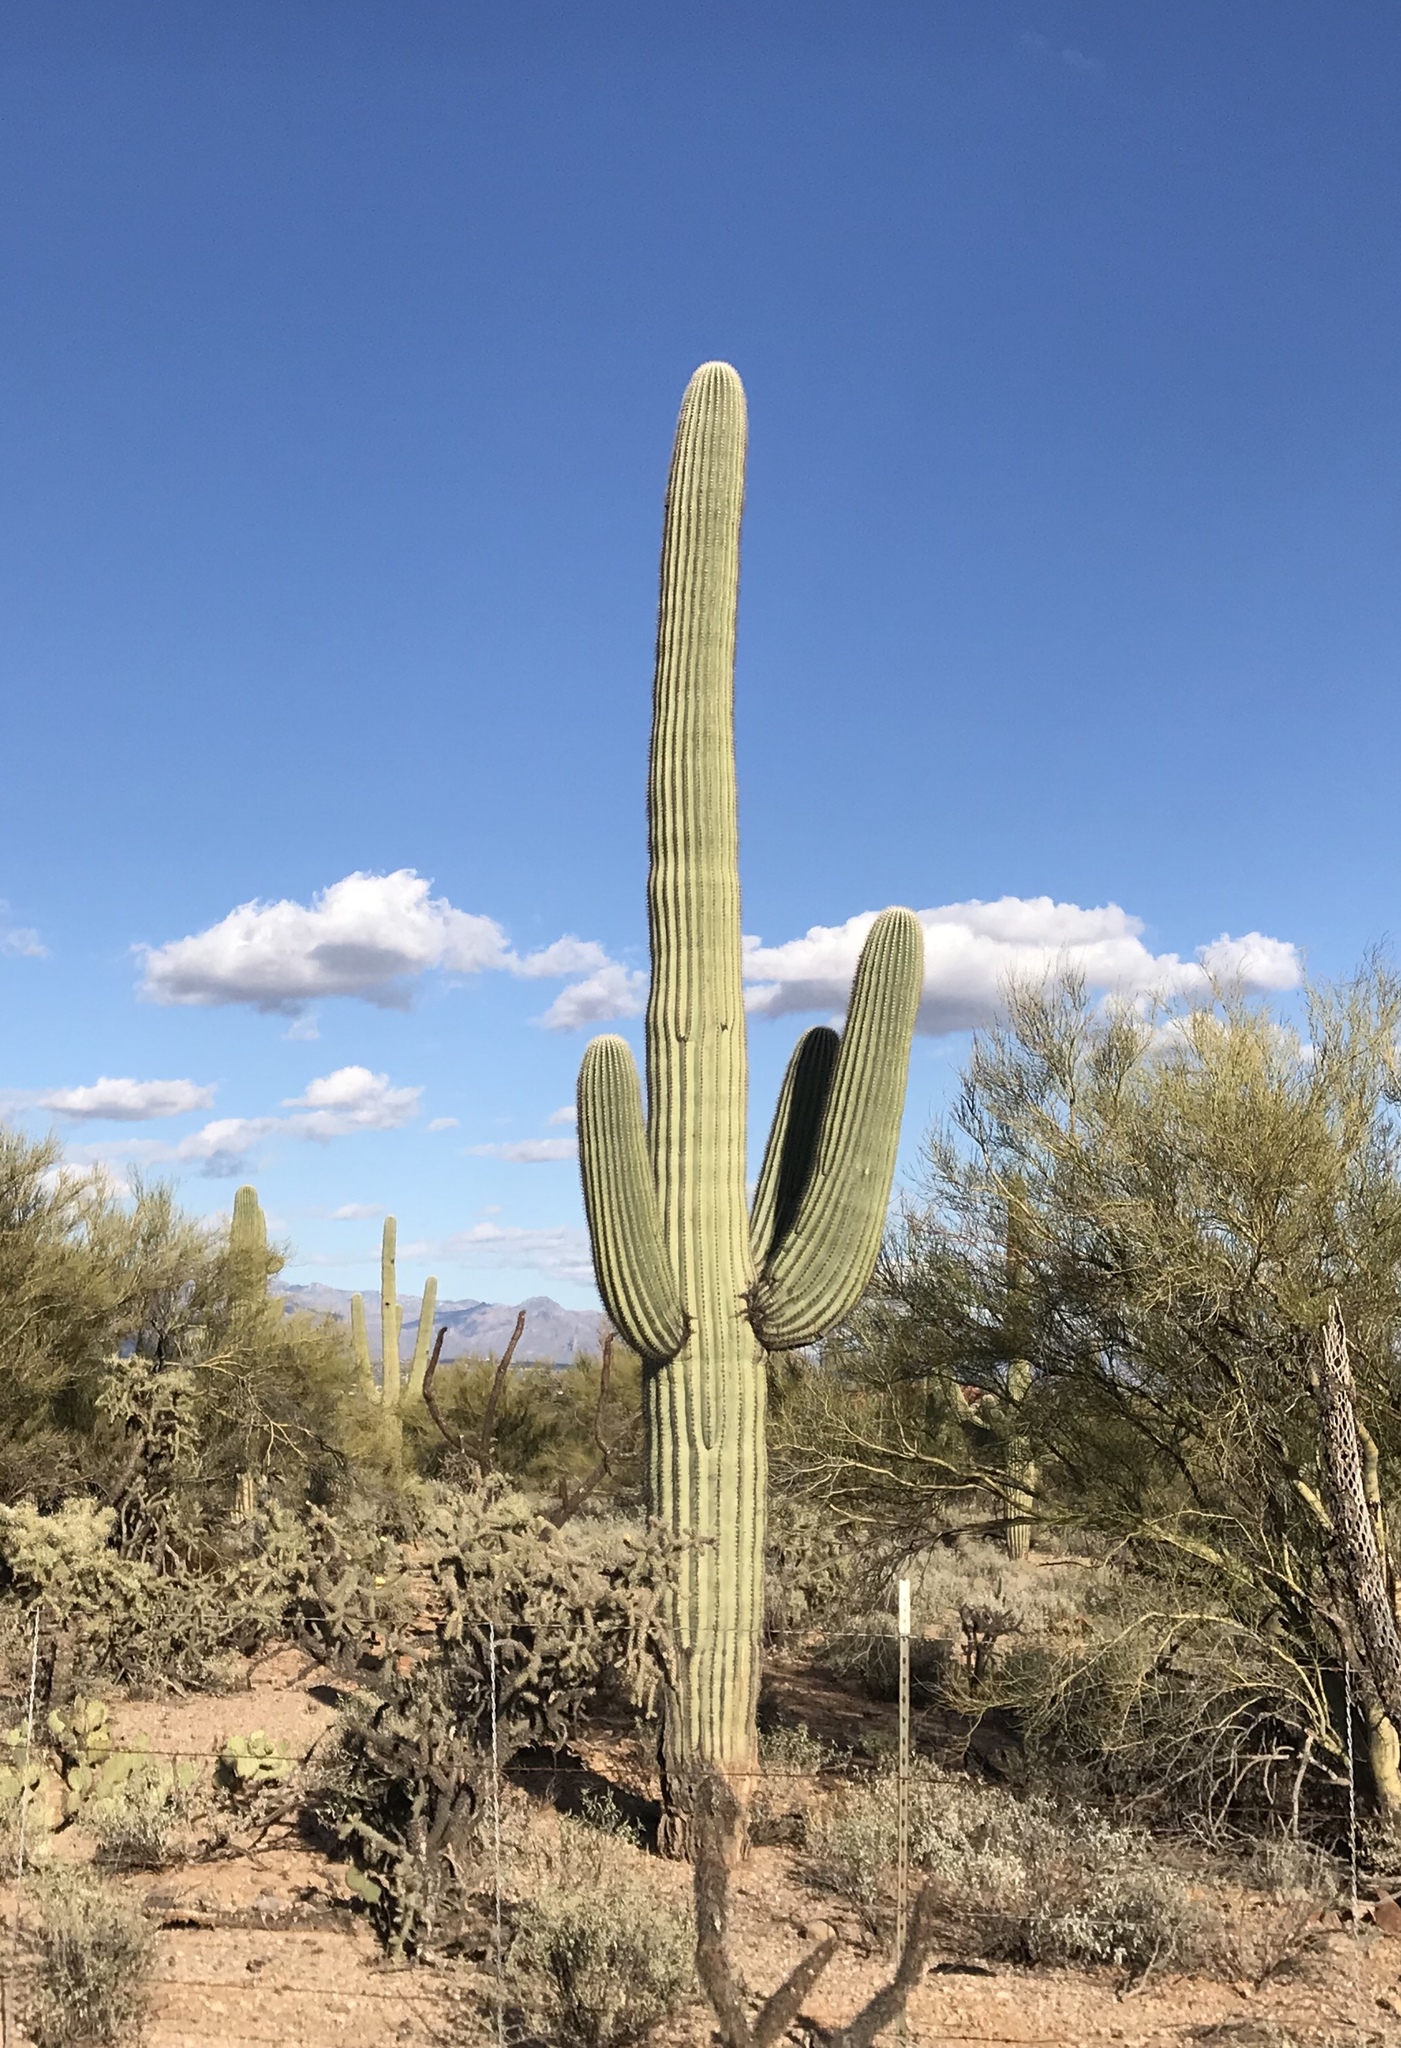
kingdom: Plantae
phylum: Tracheophyta
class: Magnoliopsida
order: Caryophyllales
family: Cactaceae
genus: Carnegiea
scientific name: Carnegiea gigantea
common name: Saguaro
